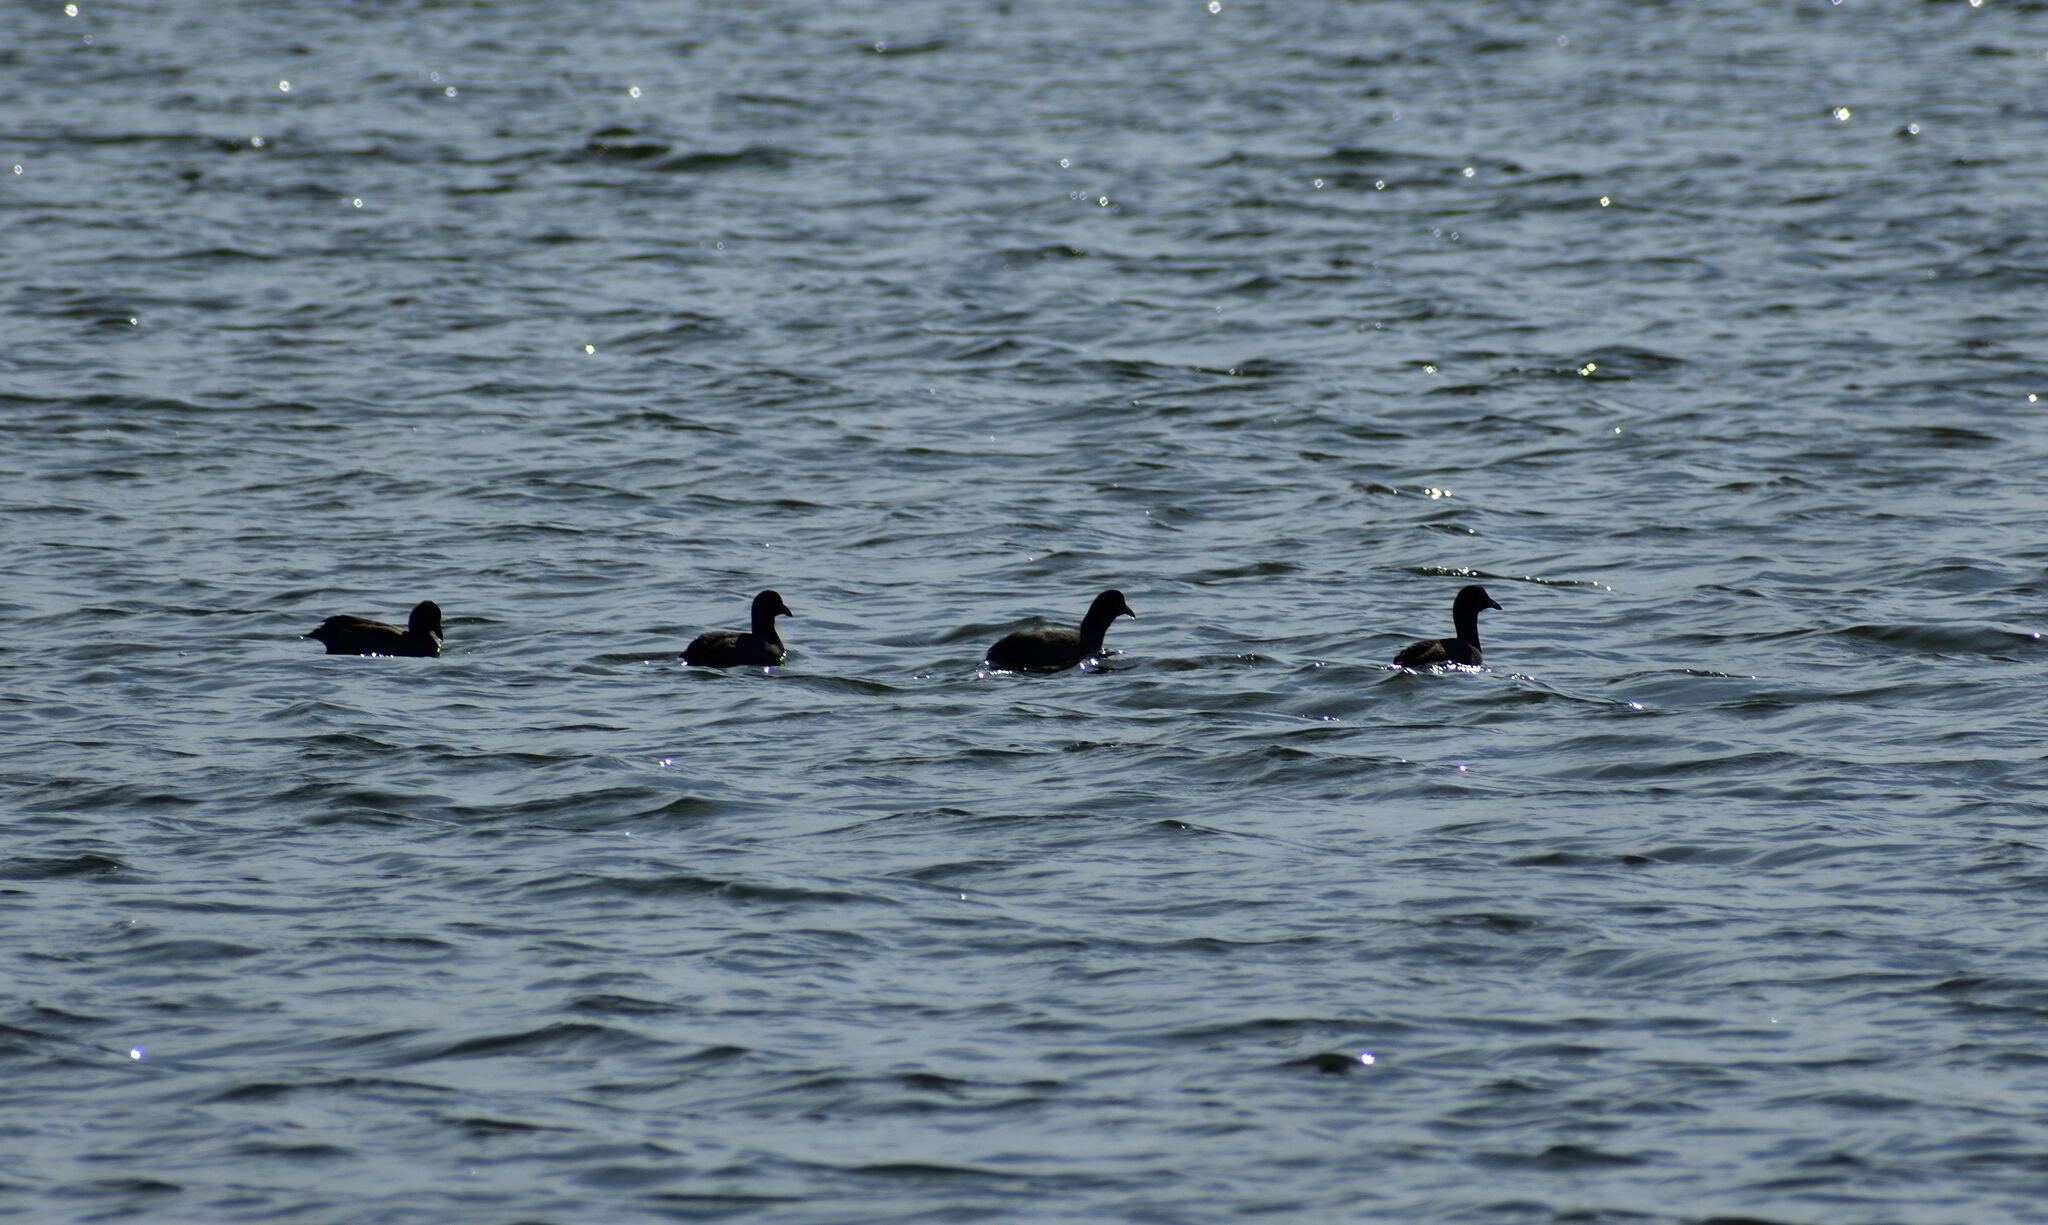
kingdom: Animalia
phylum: Chordata
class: Aves
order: Gruiformes
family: Rallidae
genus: Fulica
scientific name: Fulica americana
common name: American coot
